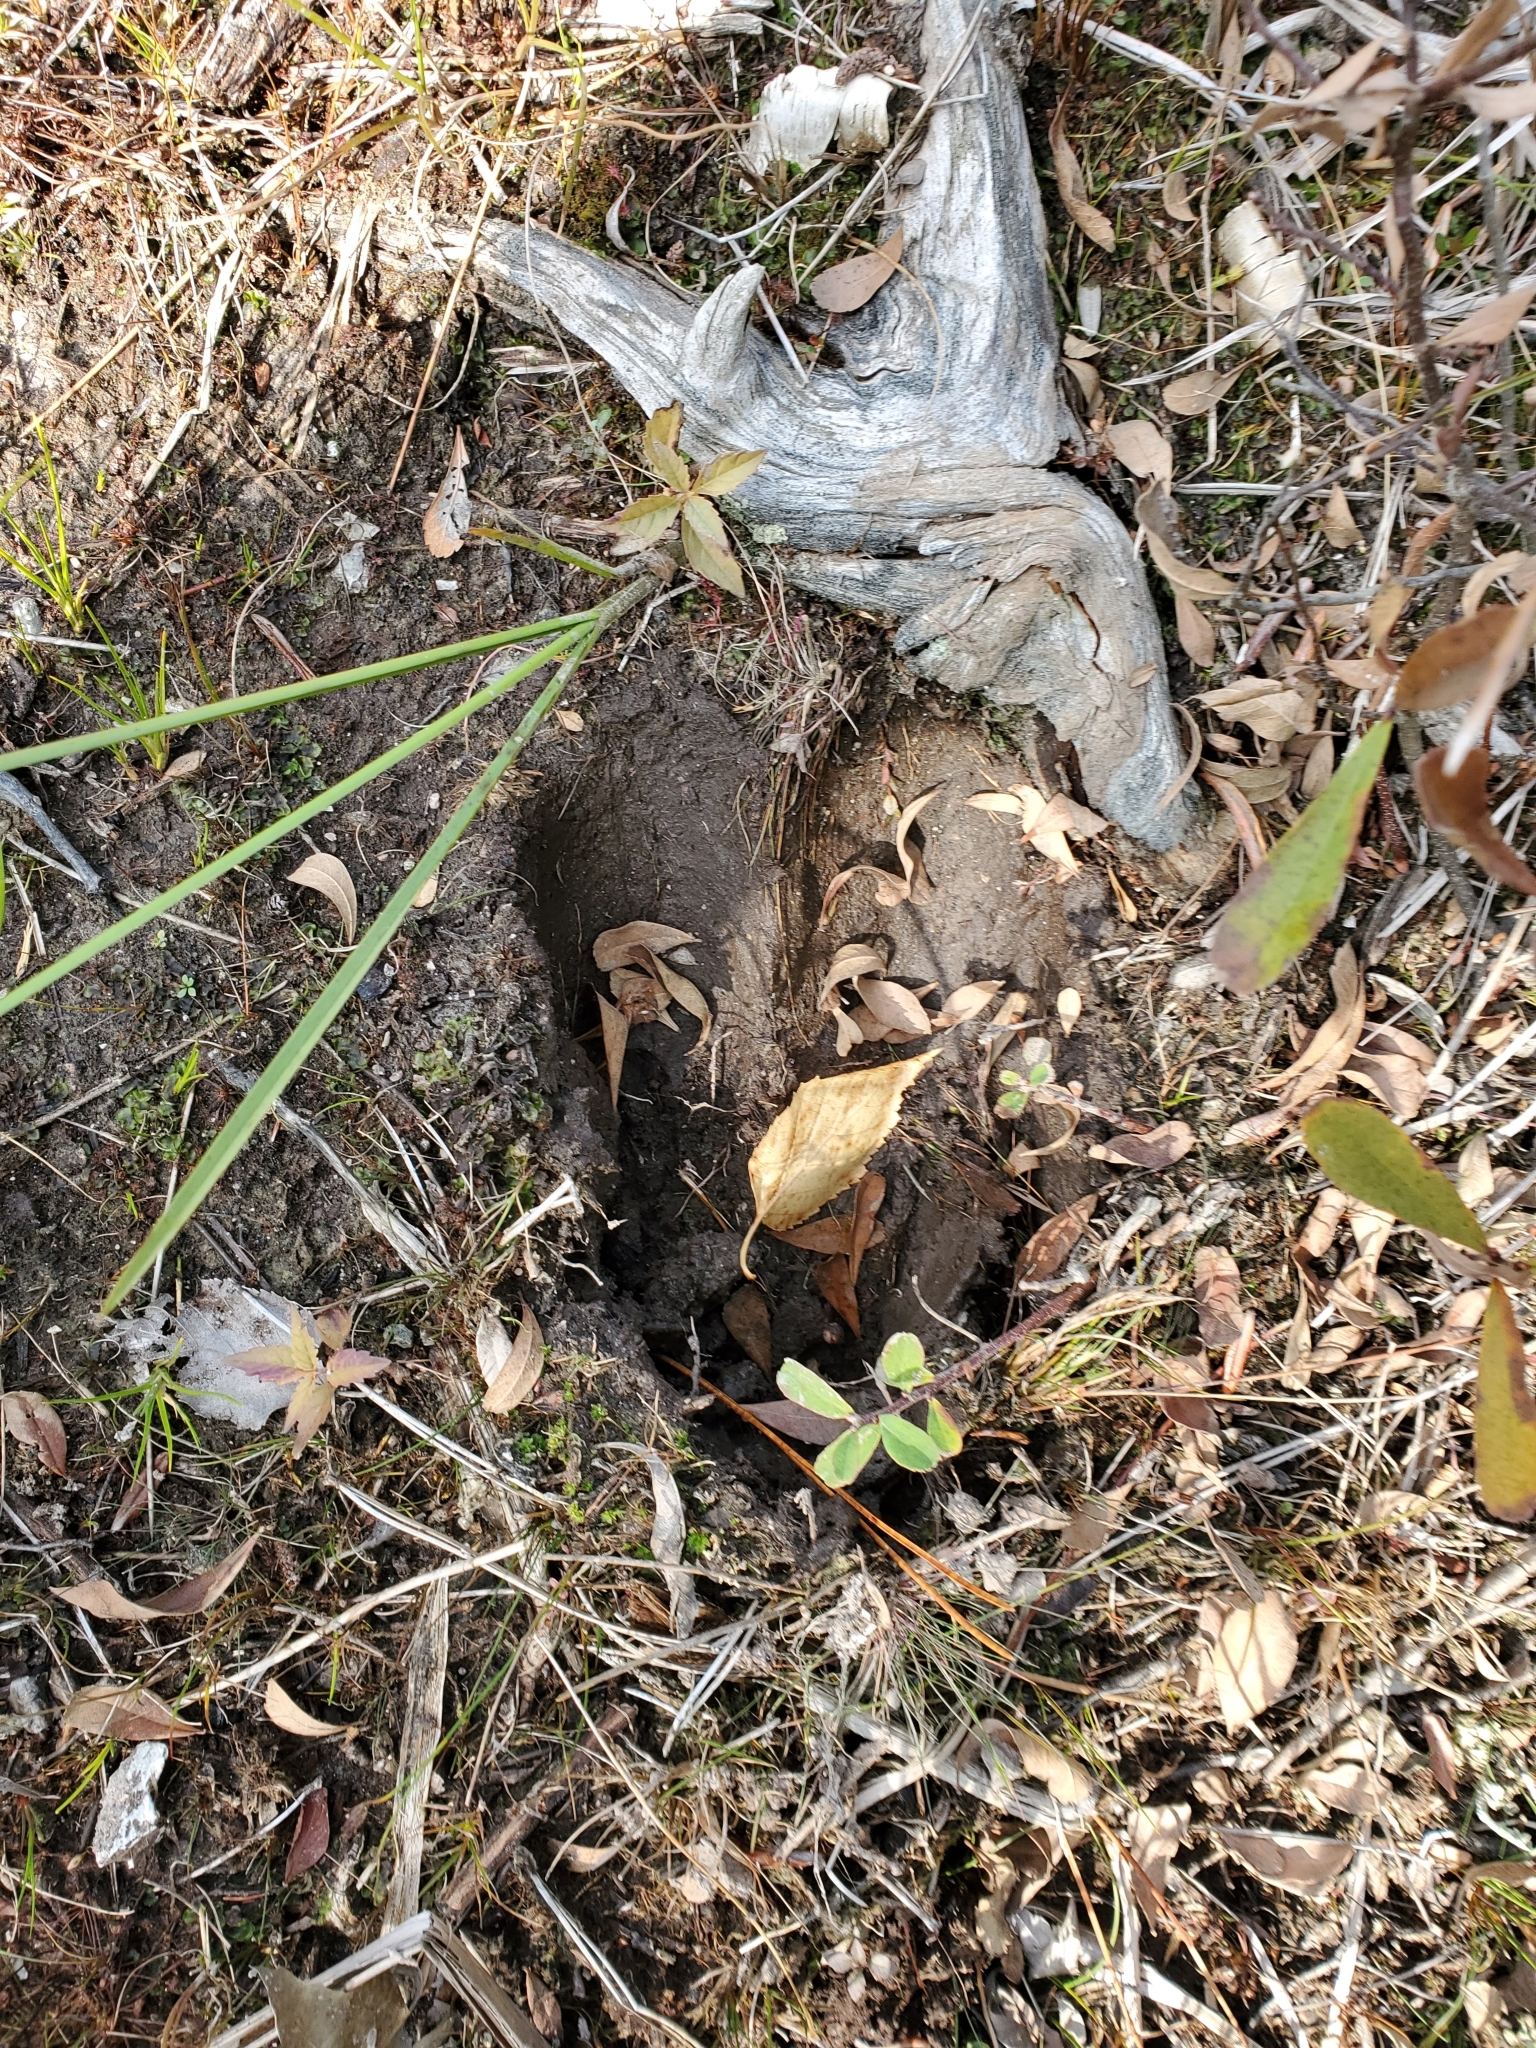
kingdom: Animalia
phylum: Chordata
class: Mammalia
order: Artiodactyla
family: Cervidae
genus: Alces
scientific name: Alces alces
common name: Moose
